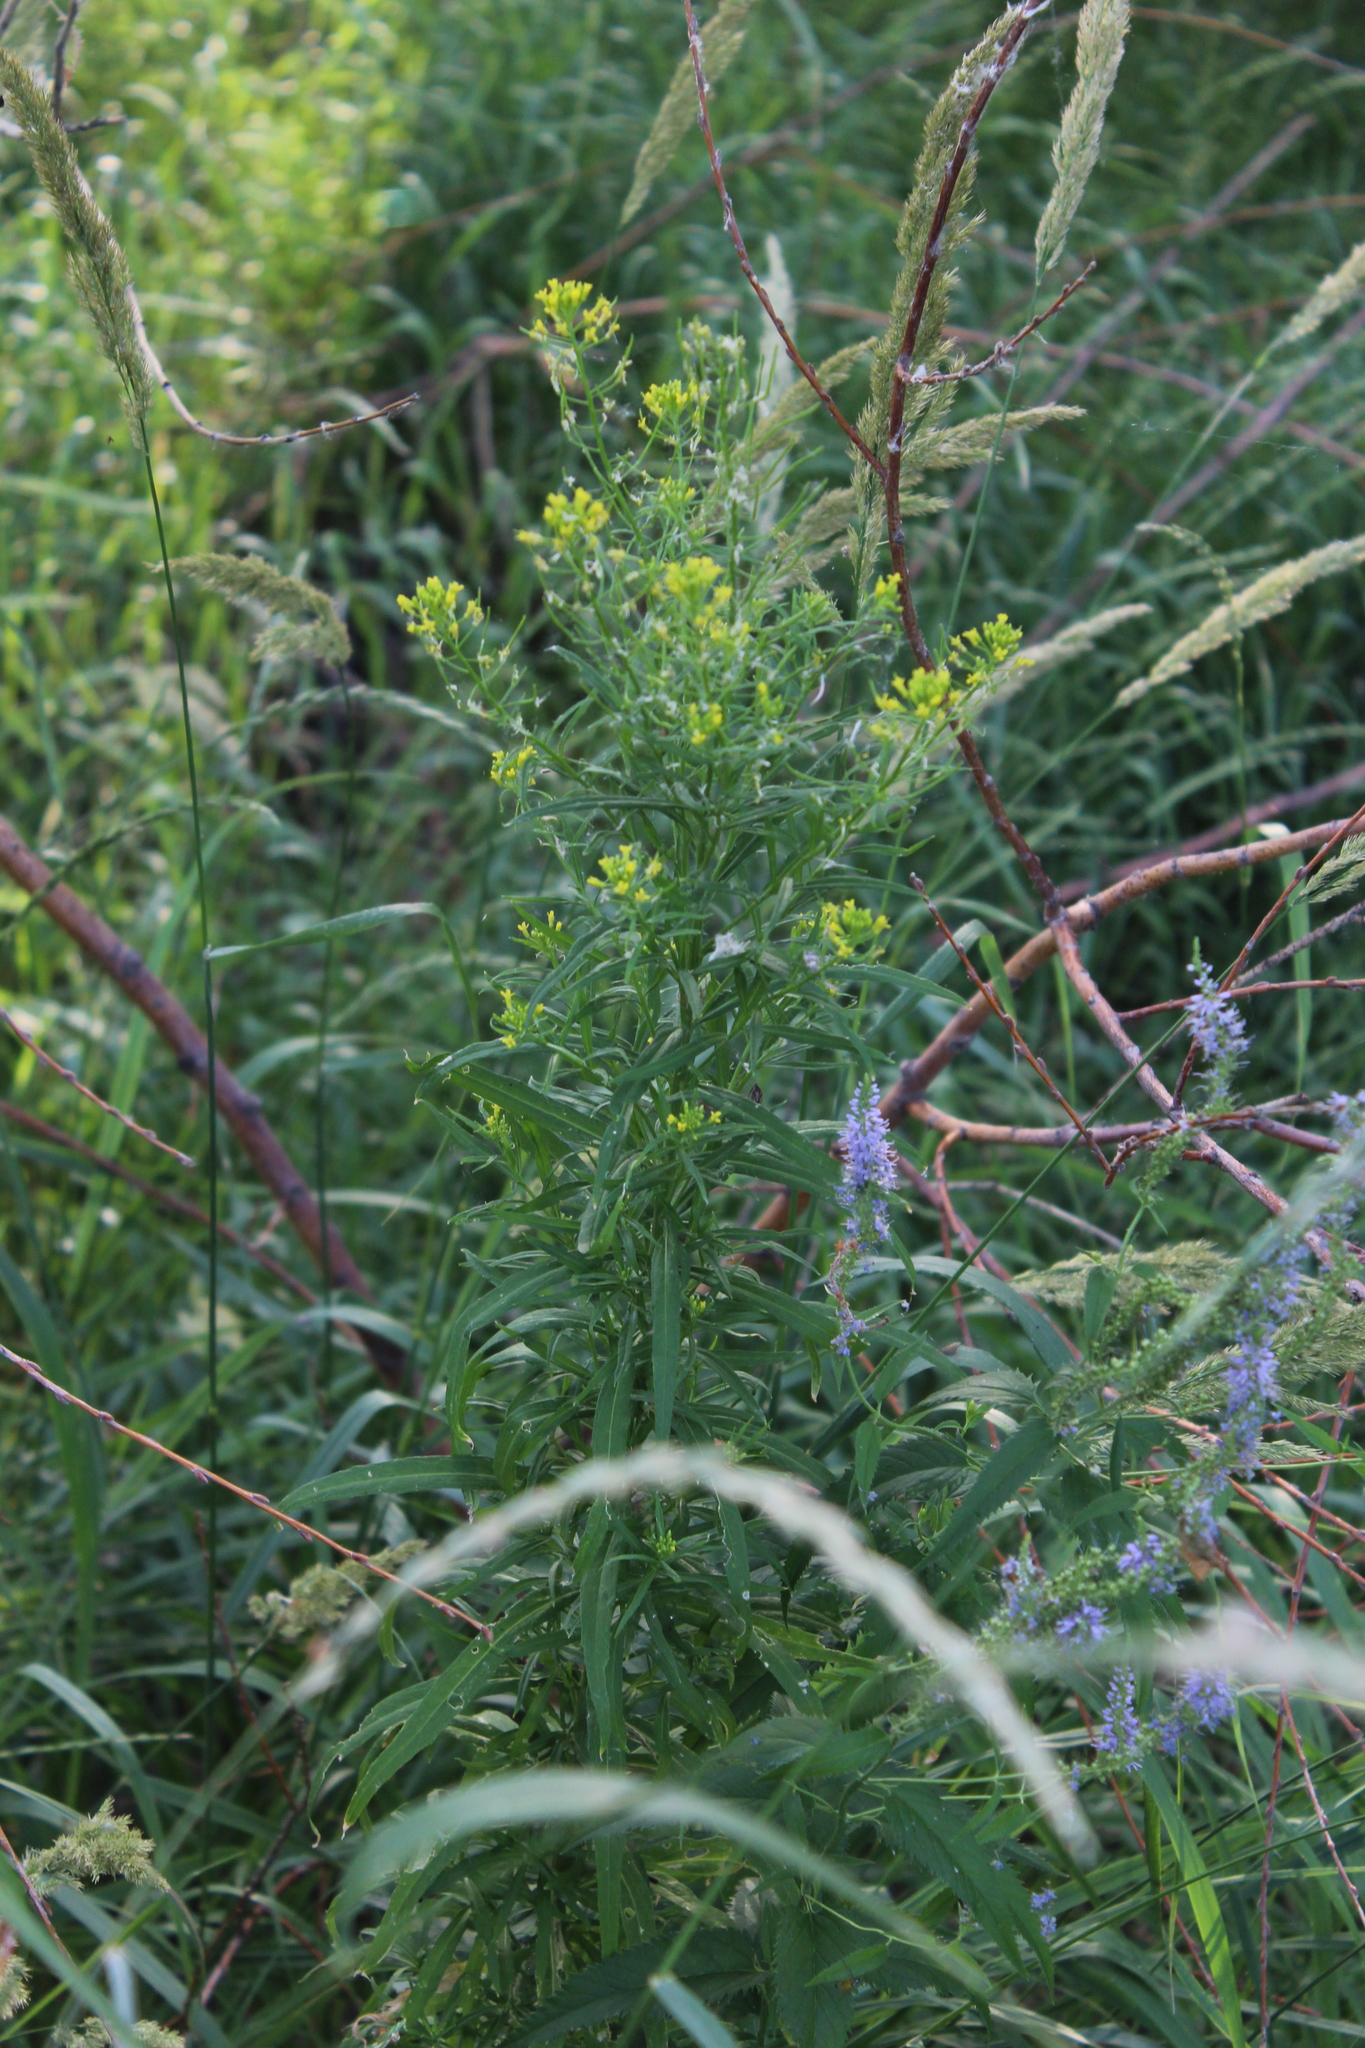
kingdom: Plantae
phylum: Tracheophyta
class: Magnoliopsida
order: Brassicales
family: Brassicaceae
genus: Erysimum
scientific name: Erysimum cheiranthoides
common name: Treacle mustard
